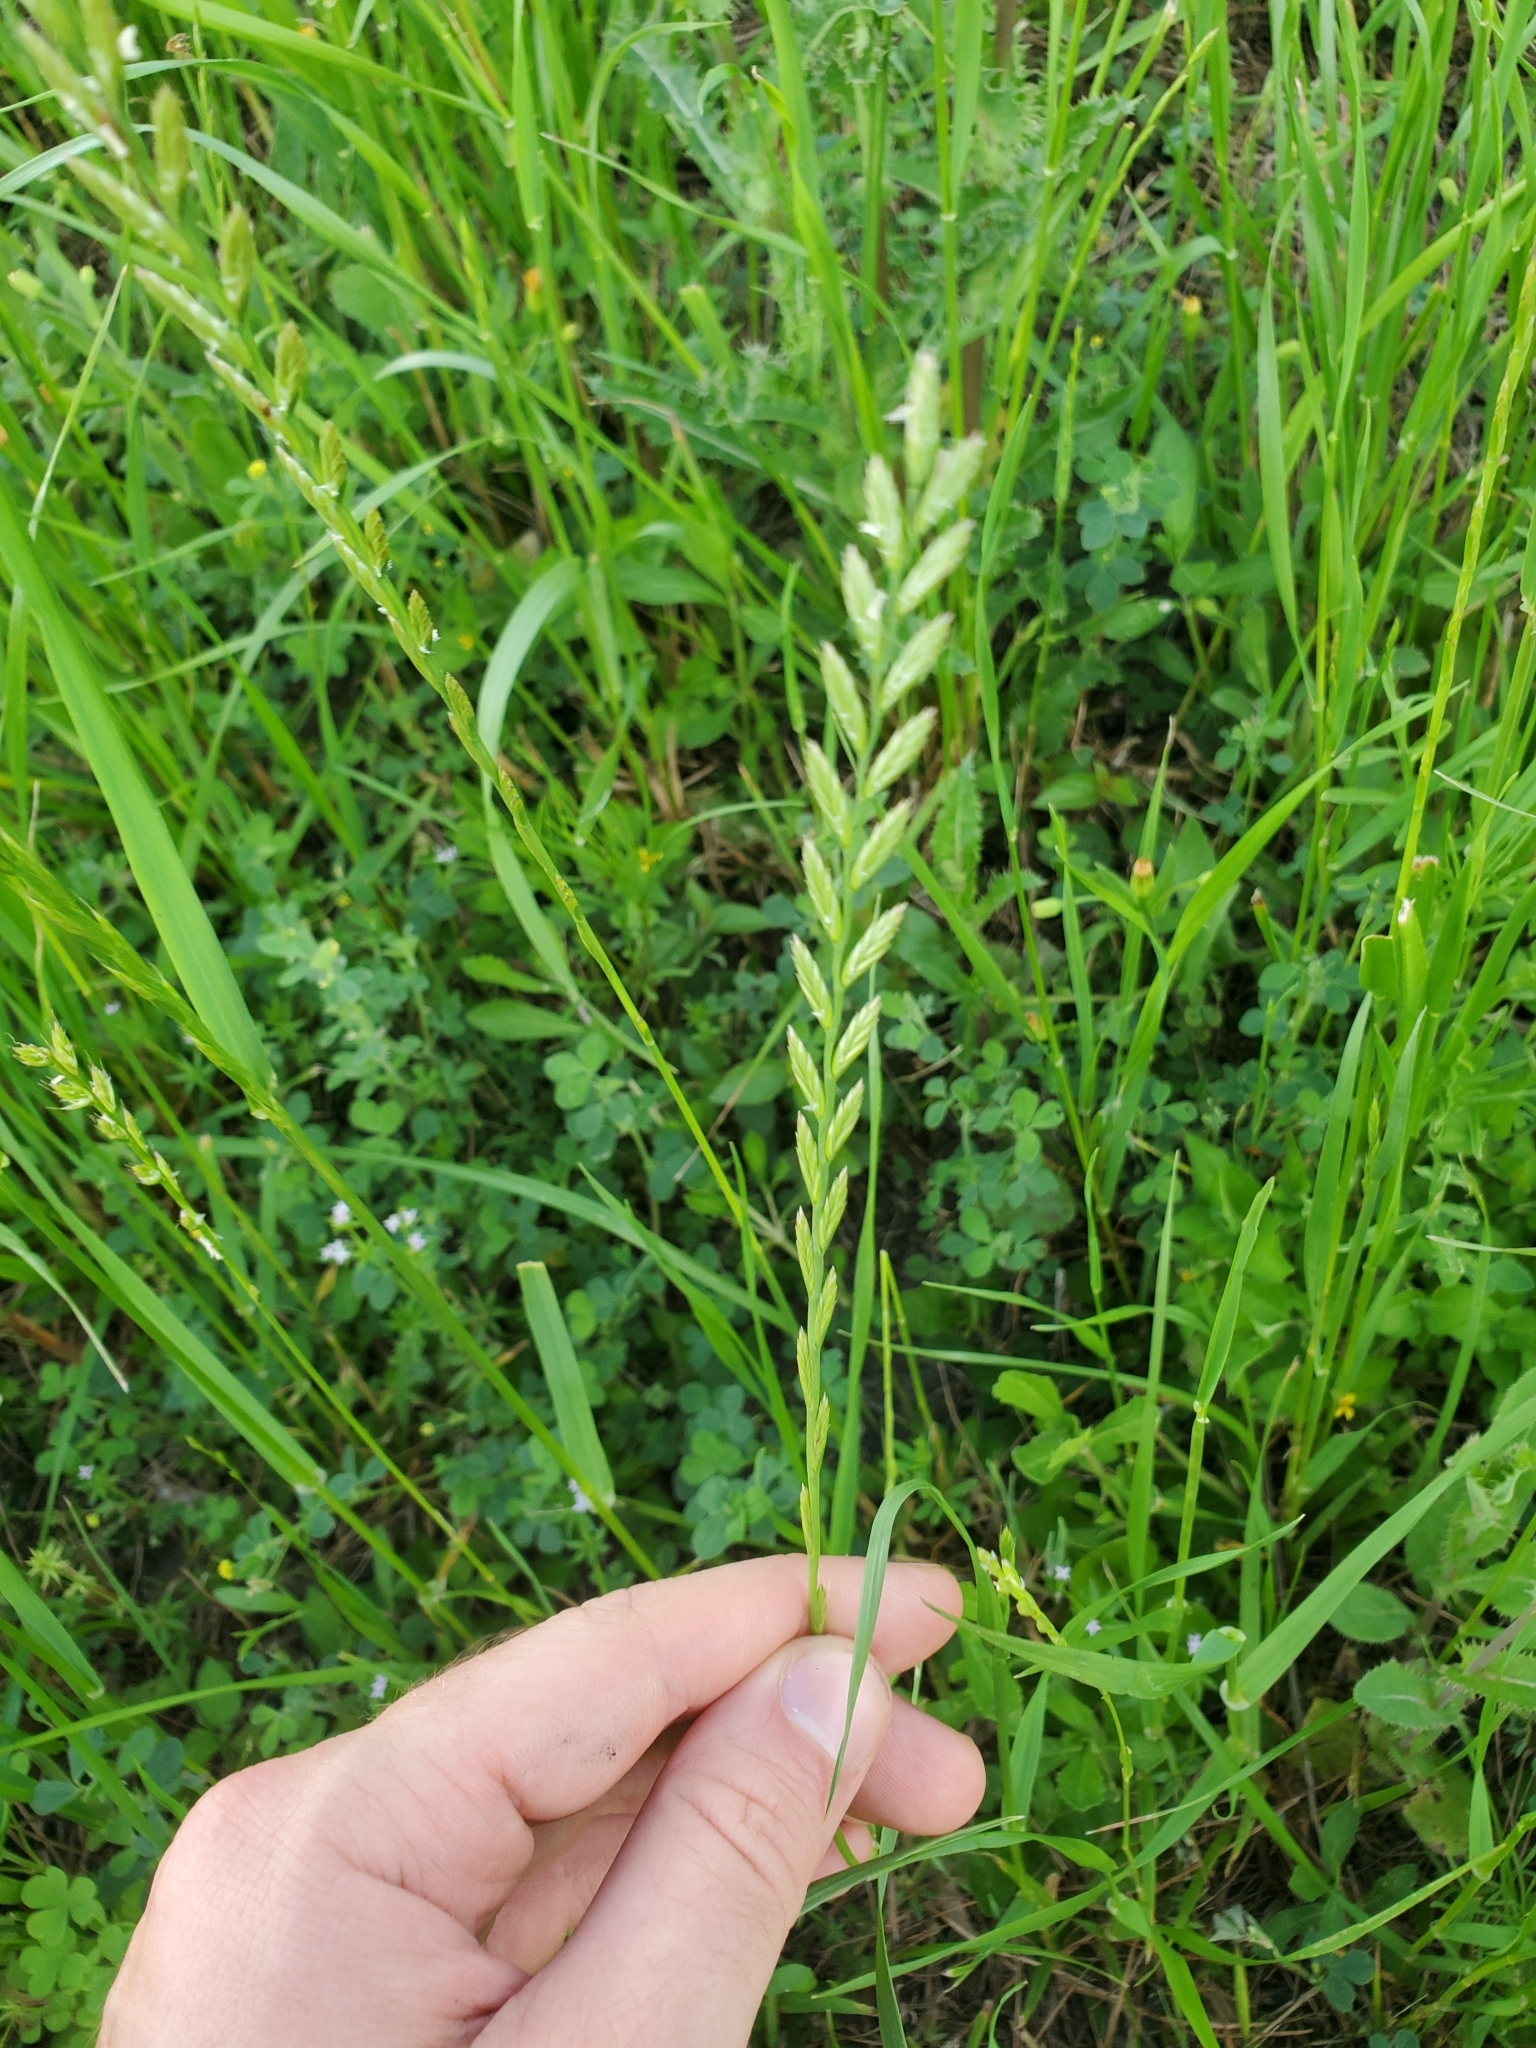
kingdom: Plantae
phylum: Tracheophyta
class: Liliopsida
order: Poales
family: Poaceae
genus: Lolium
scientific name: Lolium perenne
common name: Perennial ryegrass
